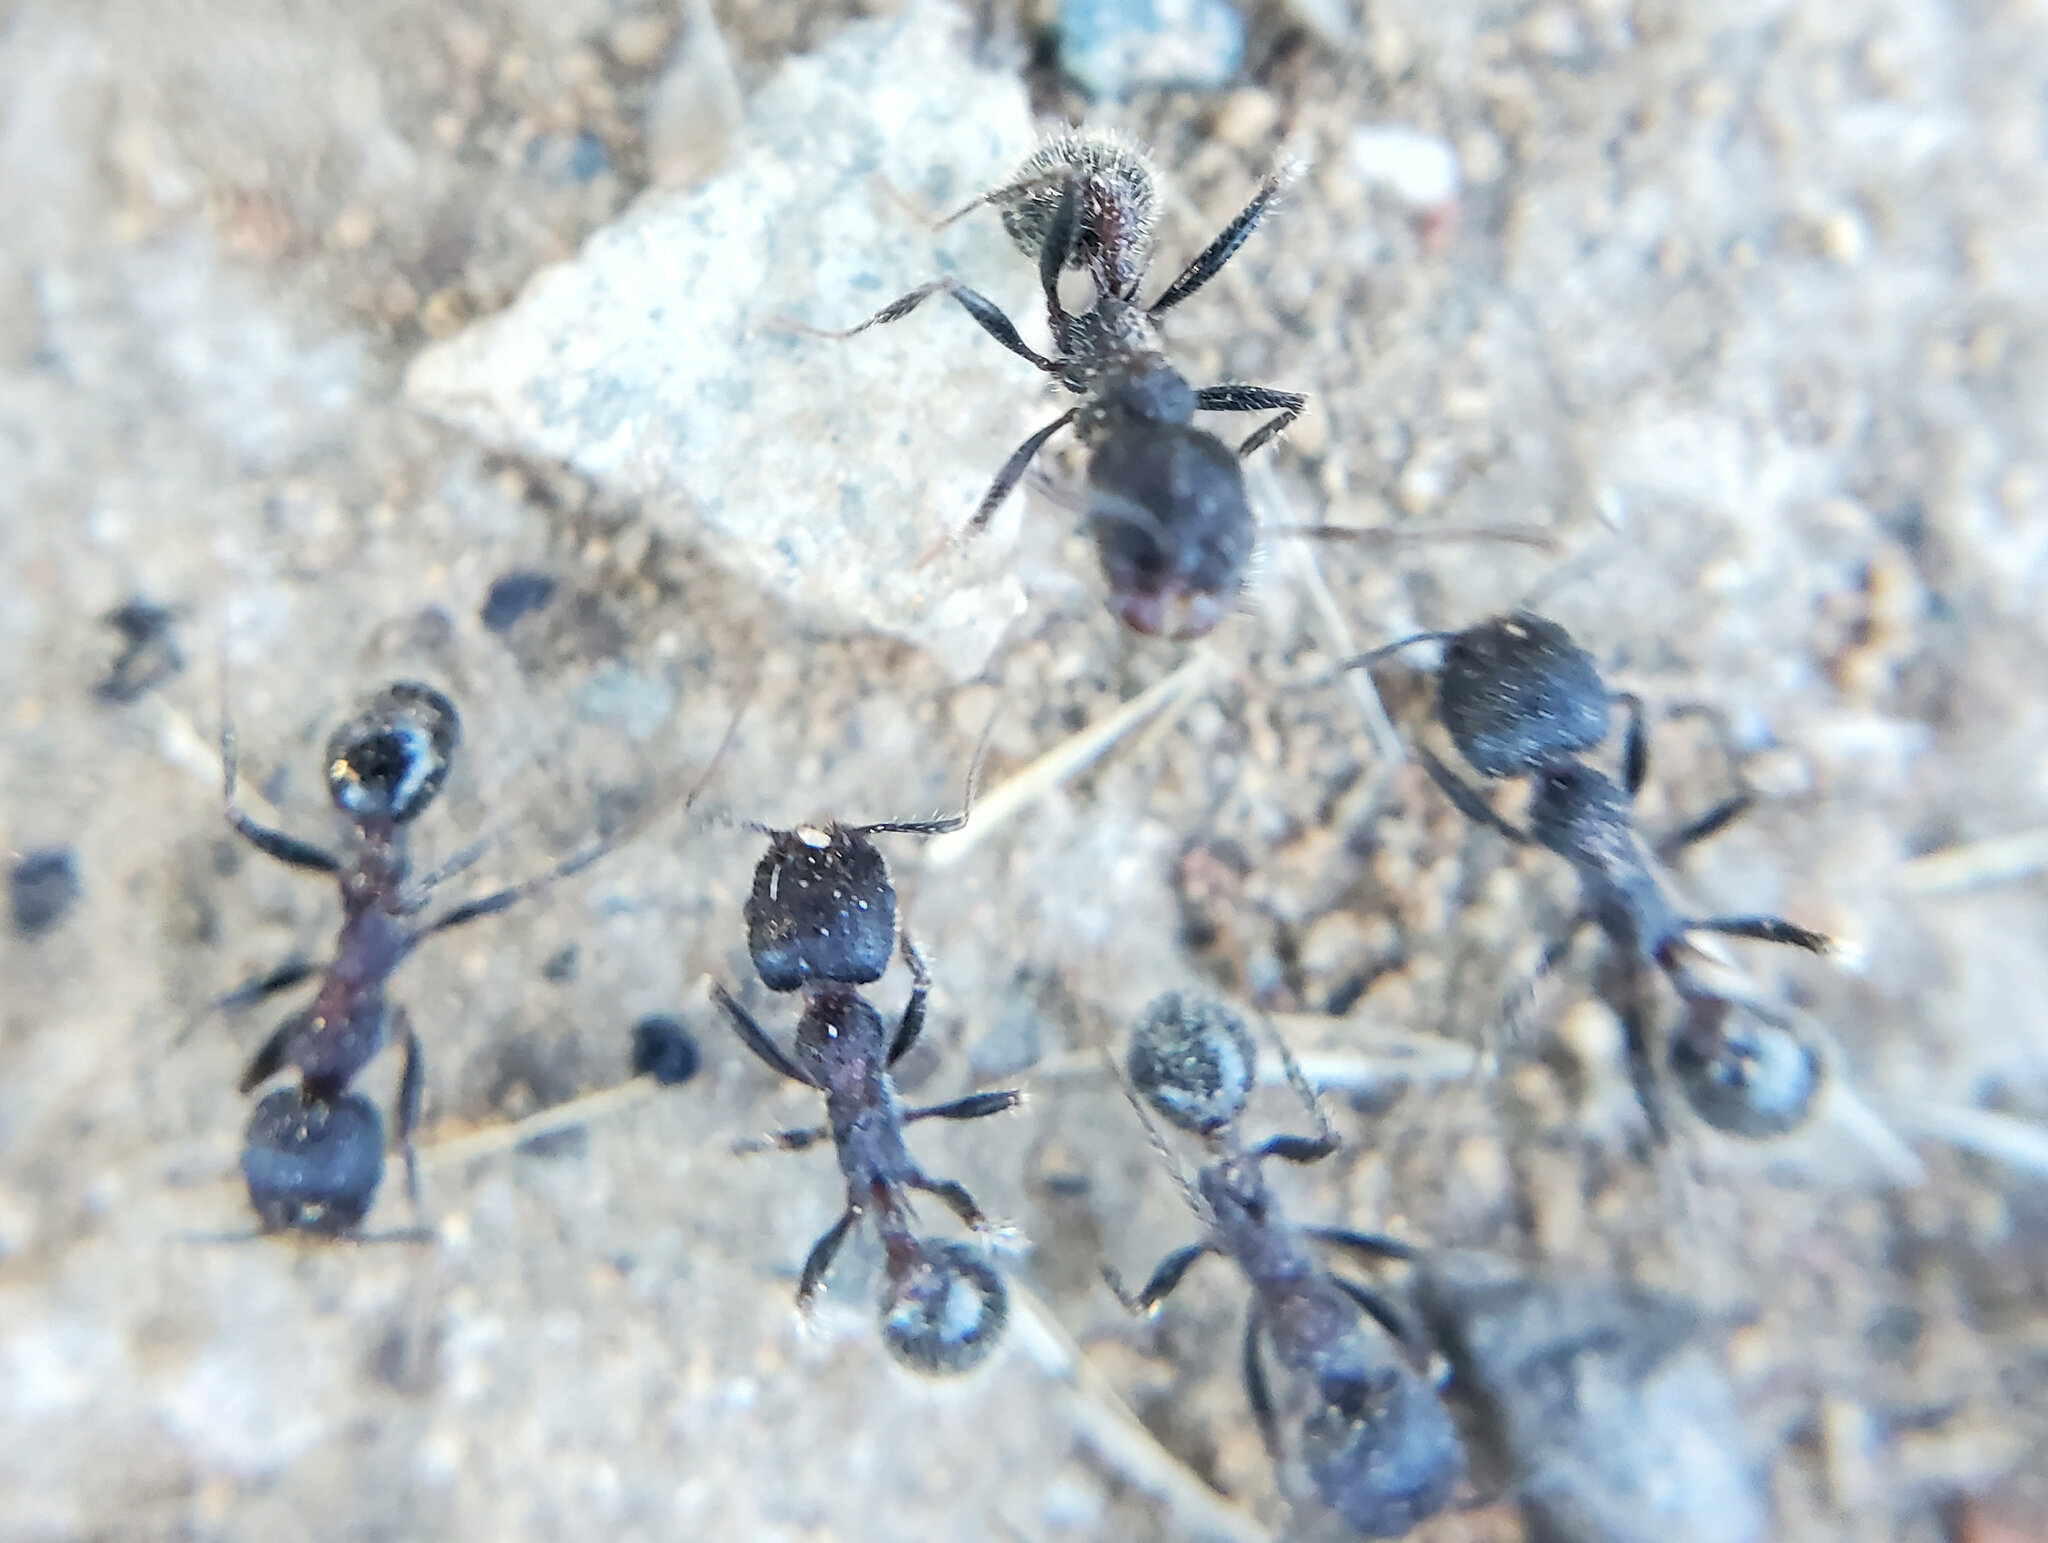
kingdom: Animalia
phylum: Arthropoda
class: Insecta
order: Hymenoptera
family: Formicidae
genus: Veromessor
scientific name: Veromessor andrei
